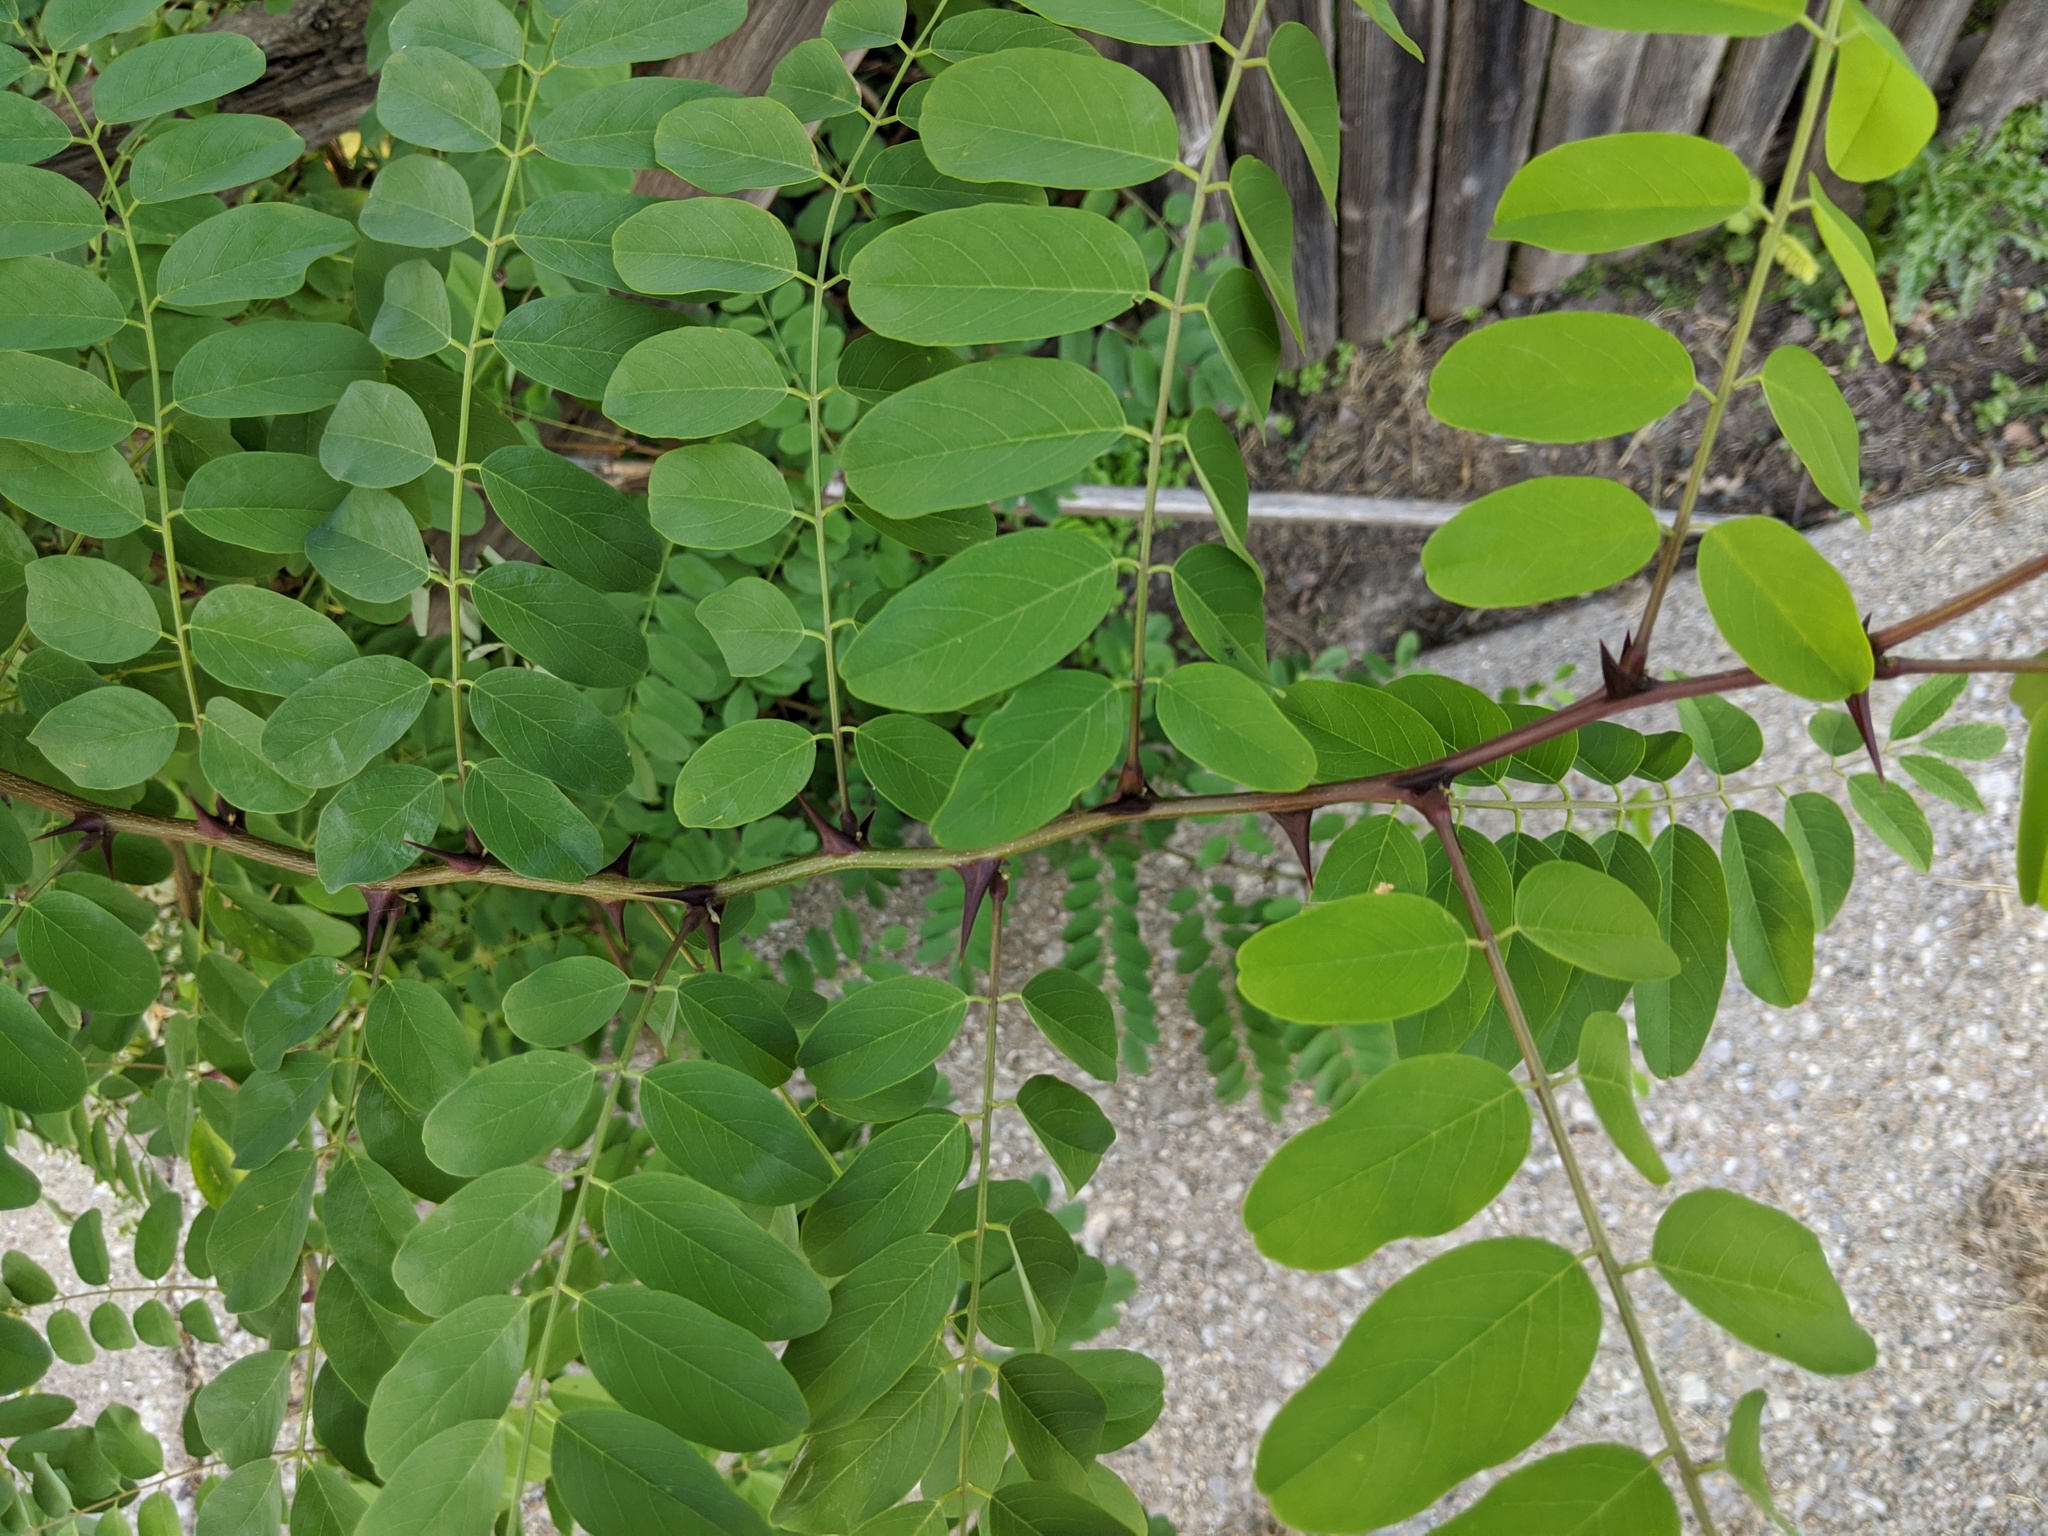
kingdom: Plantae
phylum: Tracheophyta
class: Magnoliopsida
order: Fabales
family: Fabaceae
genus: Robinia
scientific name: Robinia pseudoacacia
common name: Black locust
